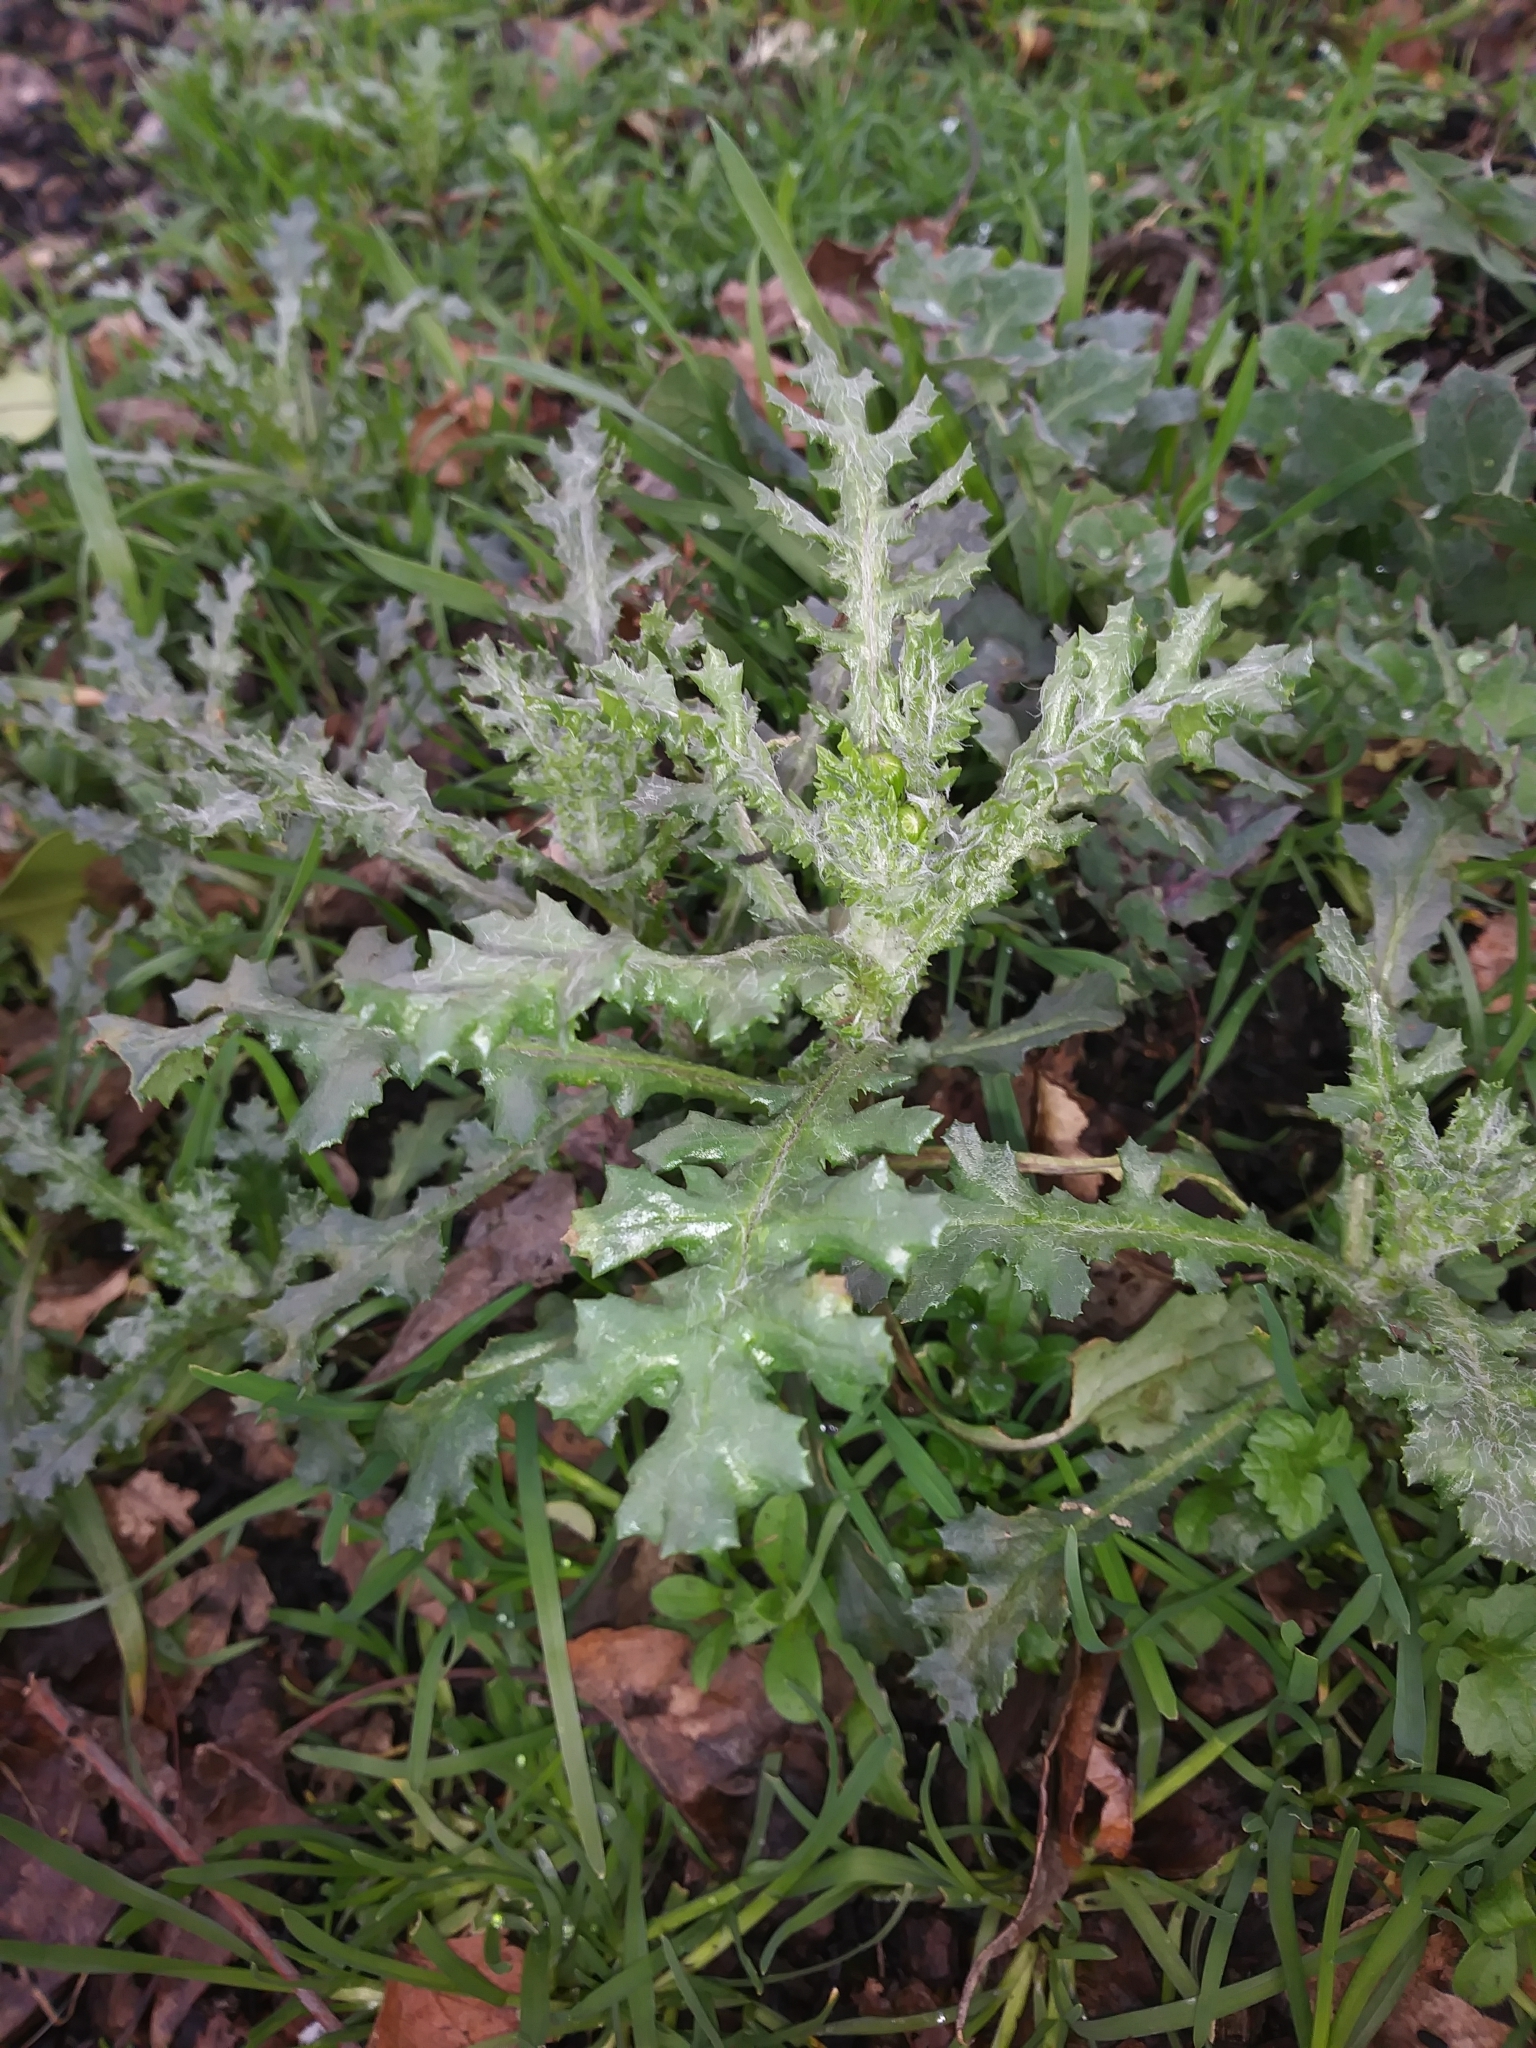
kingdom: Plantae
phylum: Tracheophyta
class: Magnoliopsida
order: Asterales
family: Asteraceae
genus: Senecio
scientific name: Senecio vulgaris
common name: Old-man-in-the-spring
